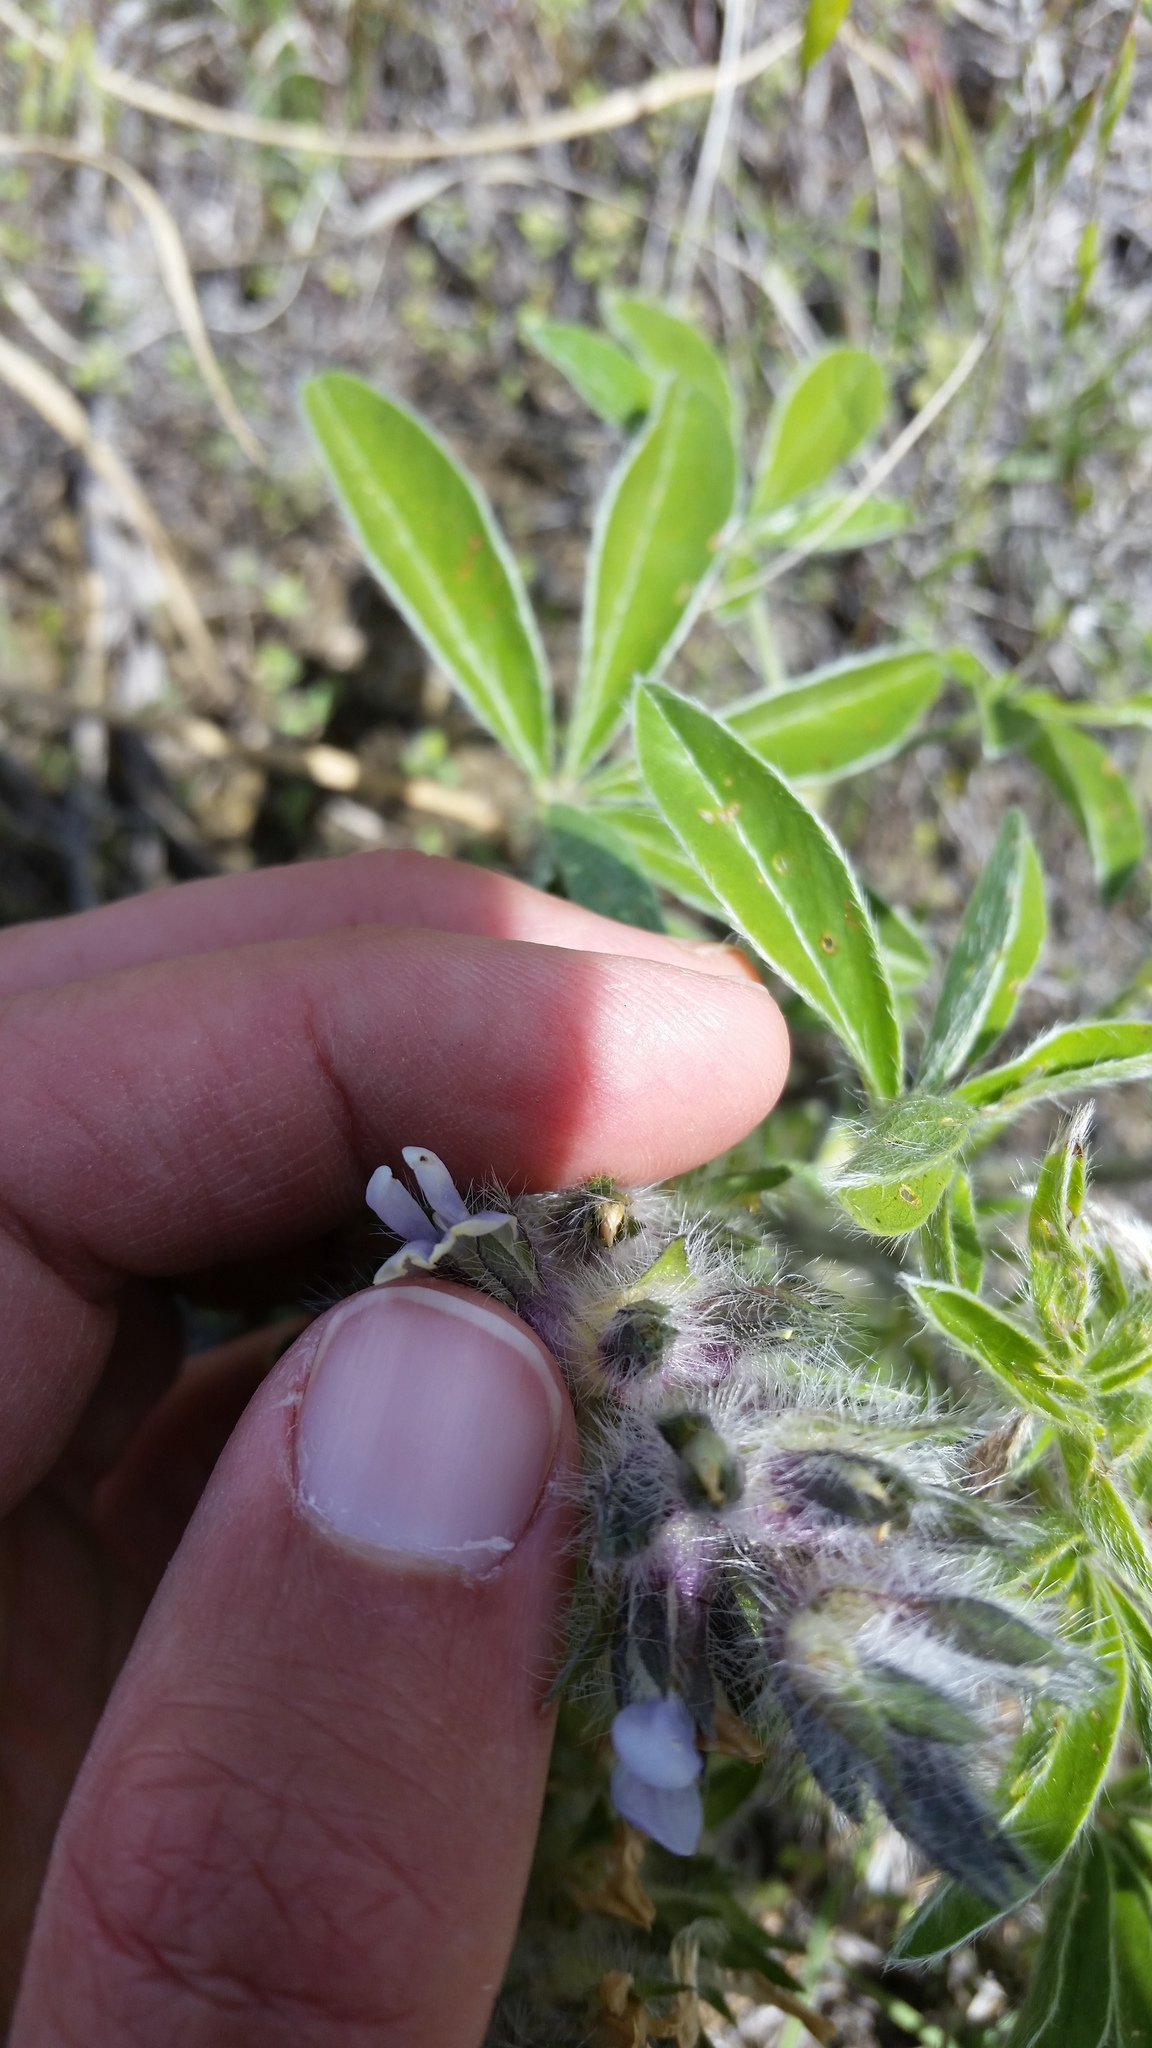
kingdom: Plantae
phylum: Tracheophyta
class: Magnoliopsida
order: Fabales
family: Fabaceae
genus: Pediomelum
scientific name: Pediomelum esculentum
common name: Indian-turnip
